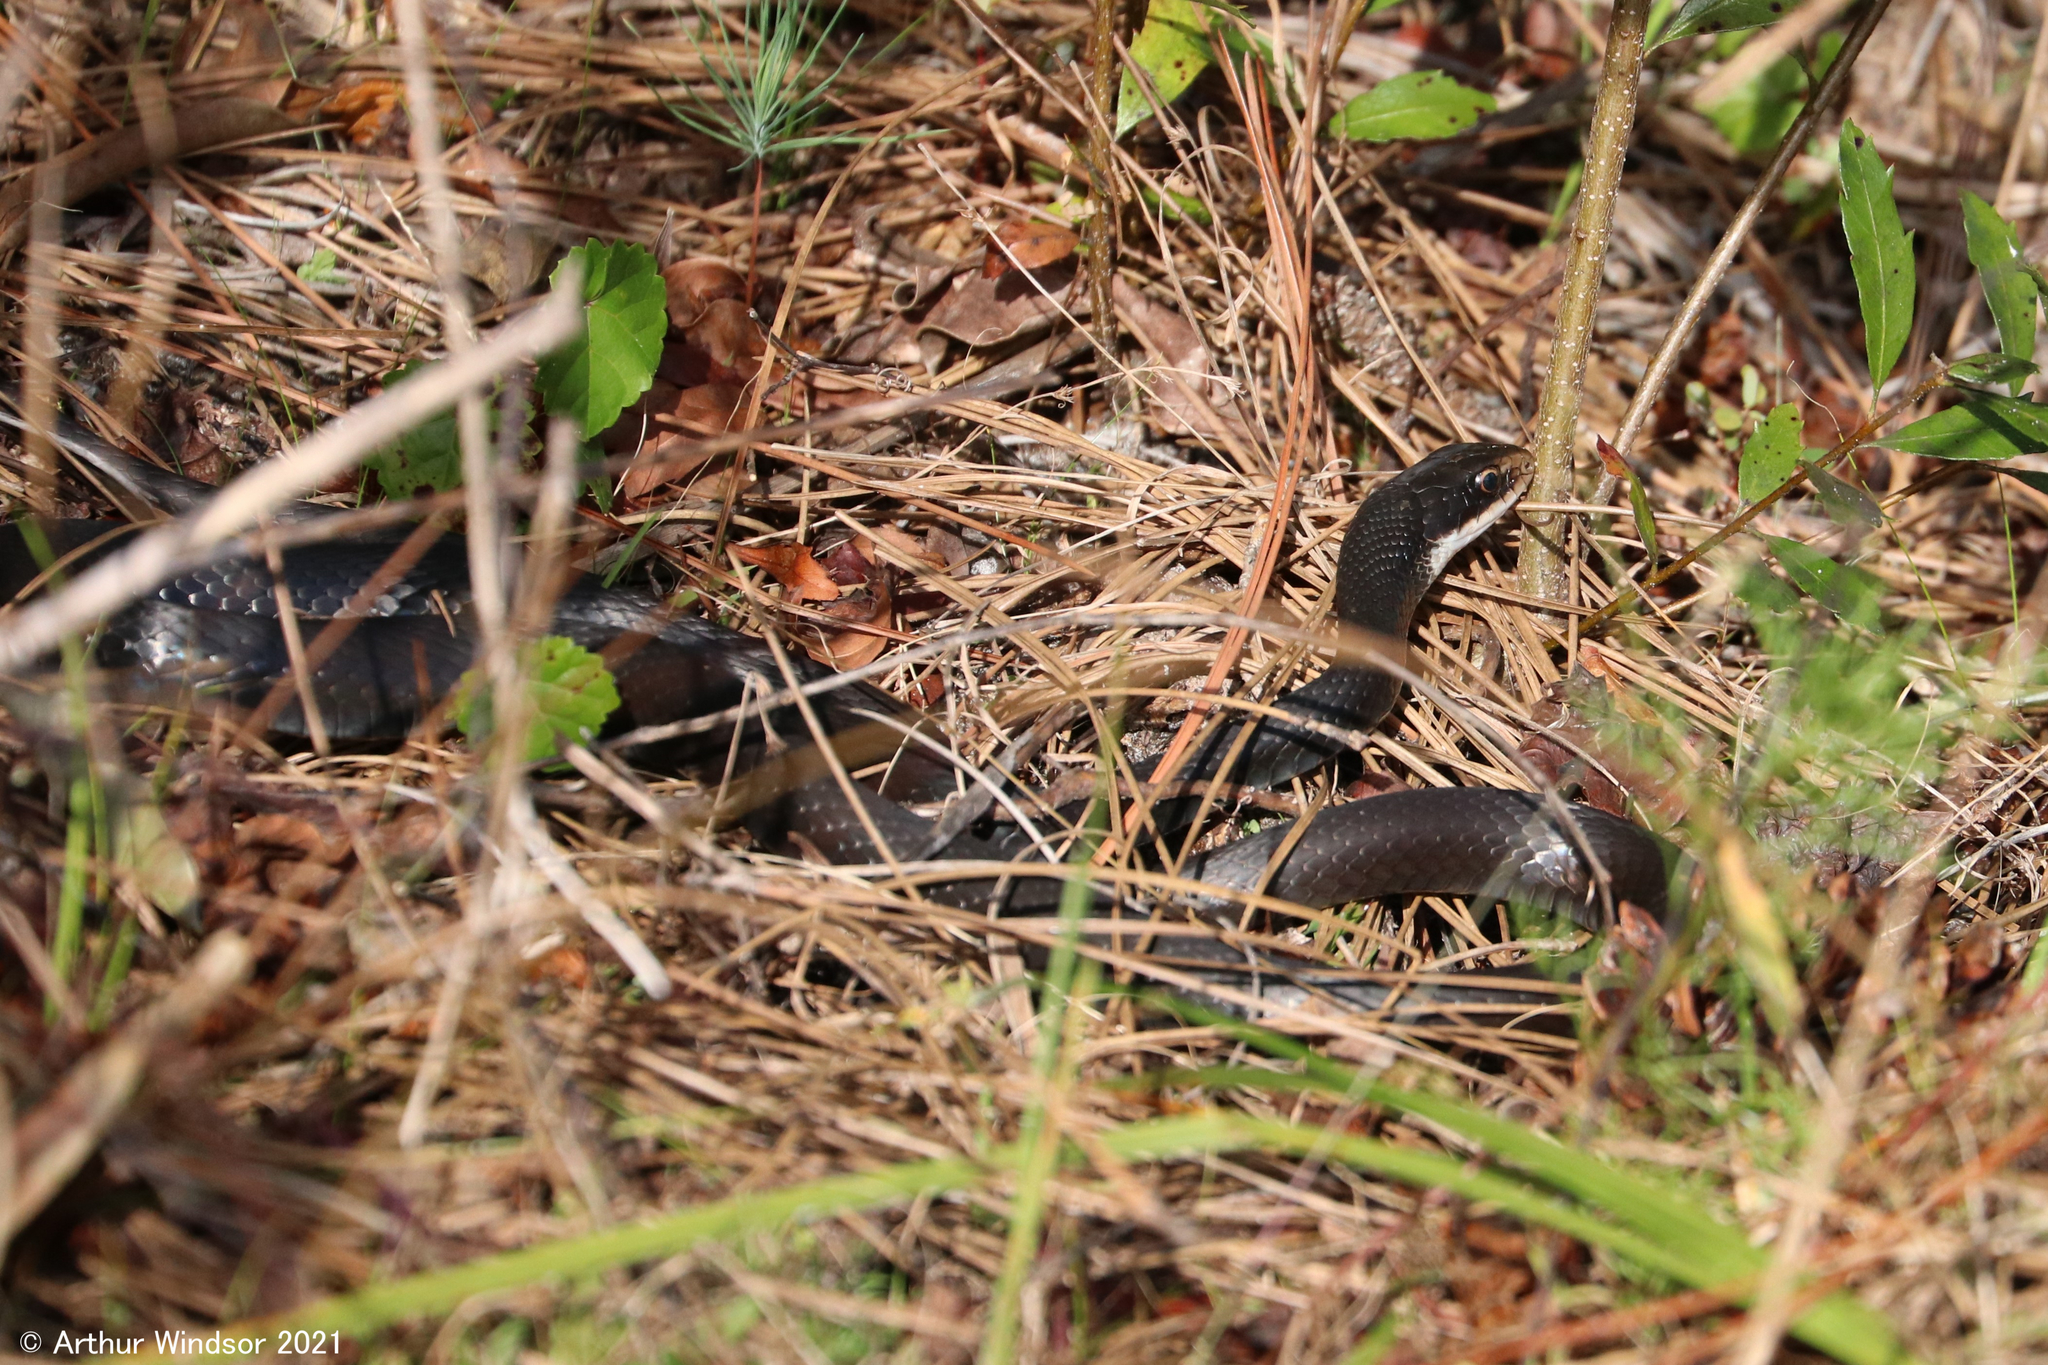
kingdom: Animalia
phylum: Chordata
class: Squamata
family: Colubridae
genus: Coluber
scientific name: Coluber constrictor
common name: Eastern racer
